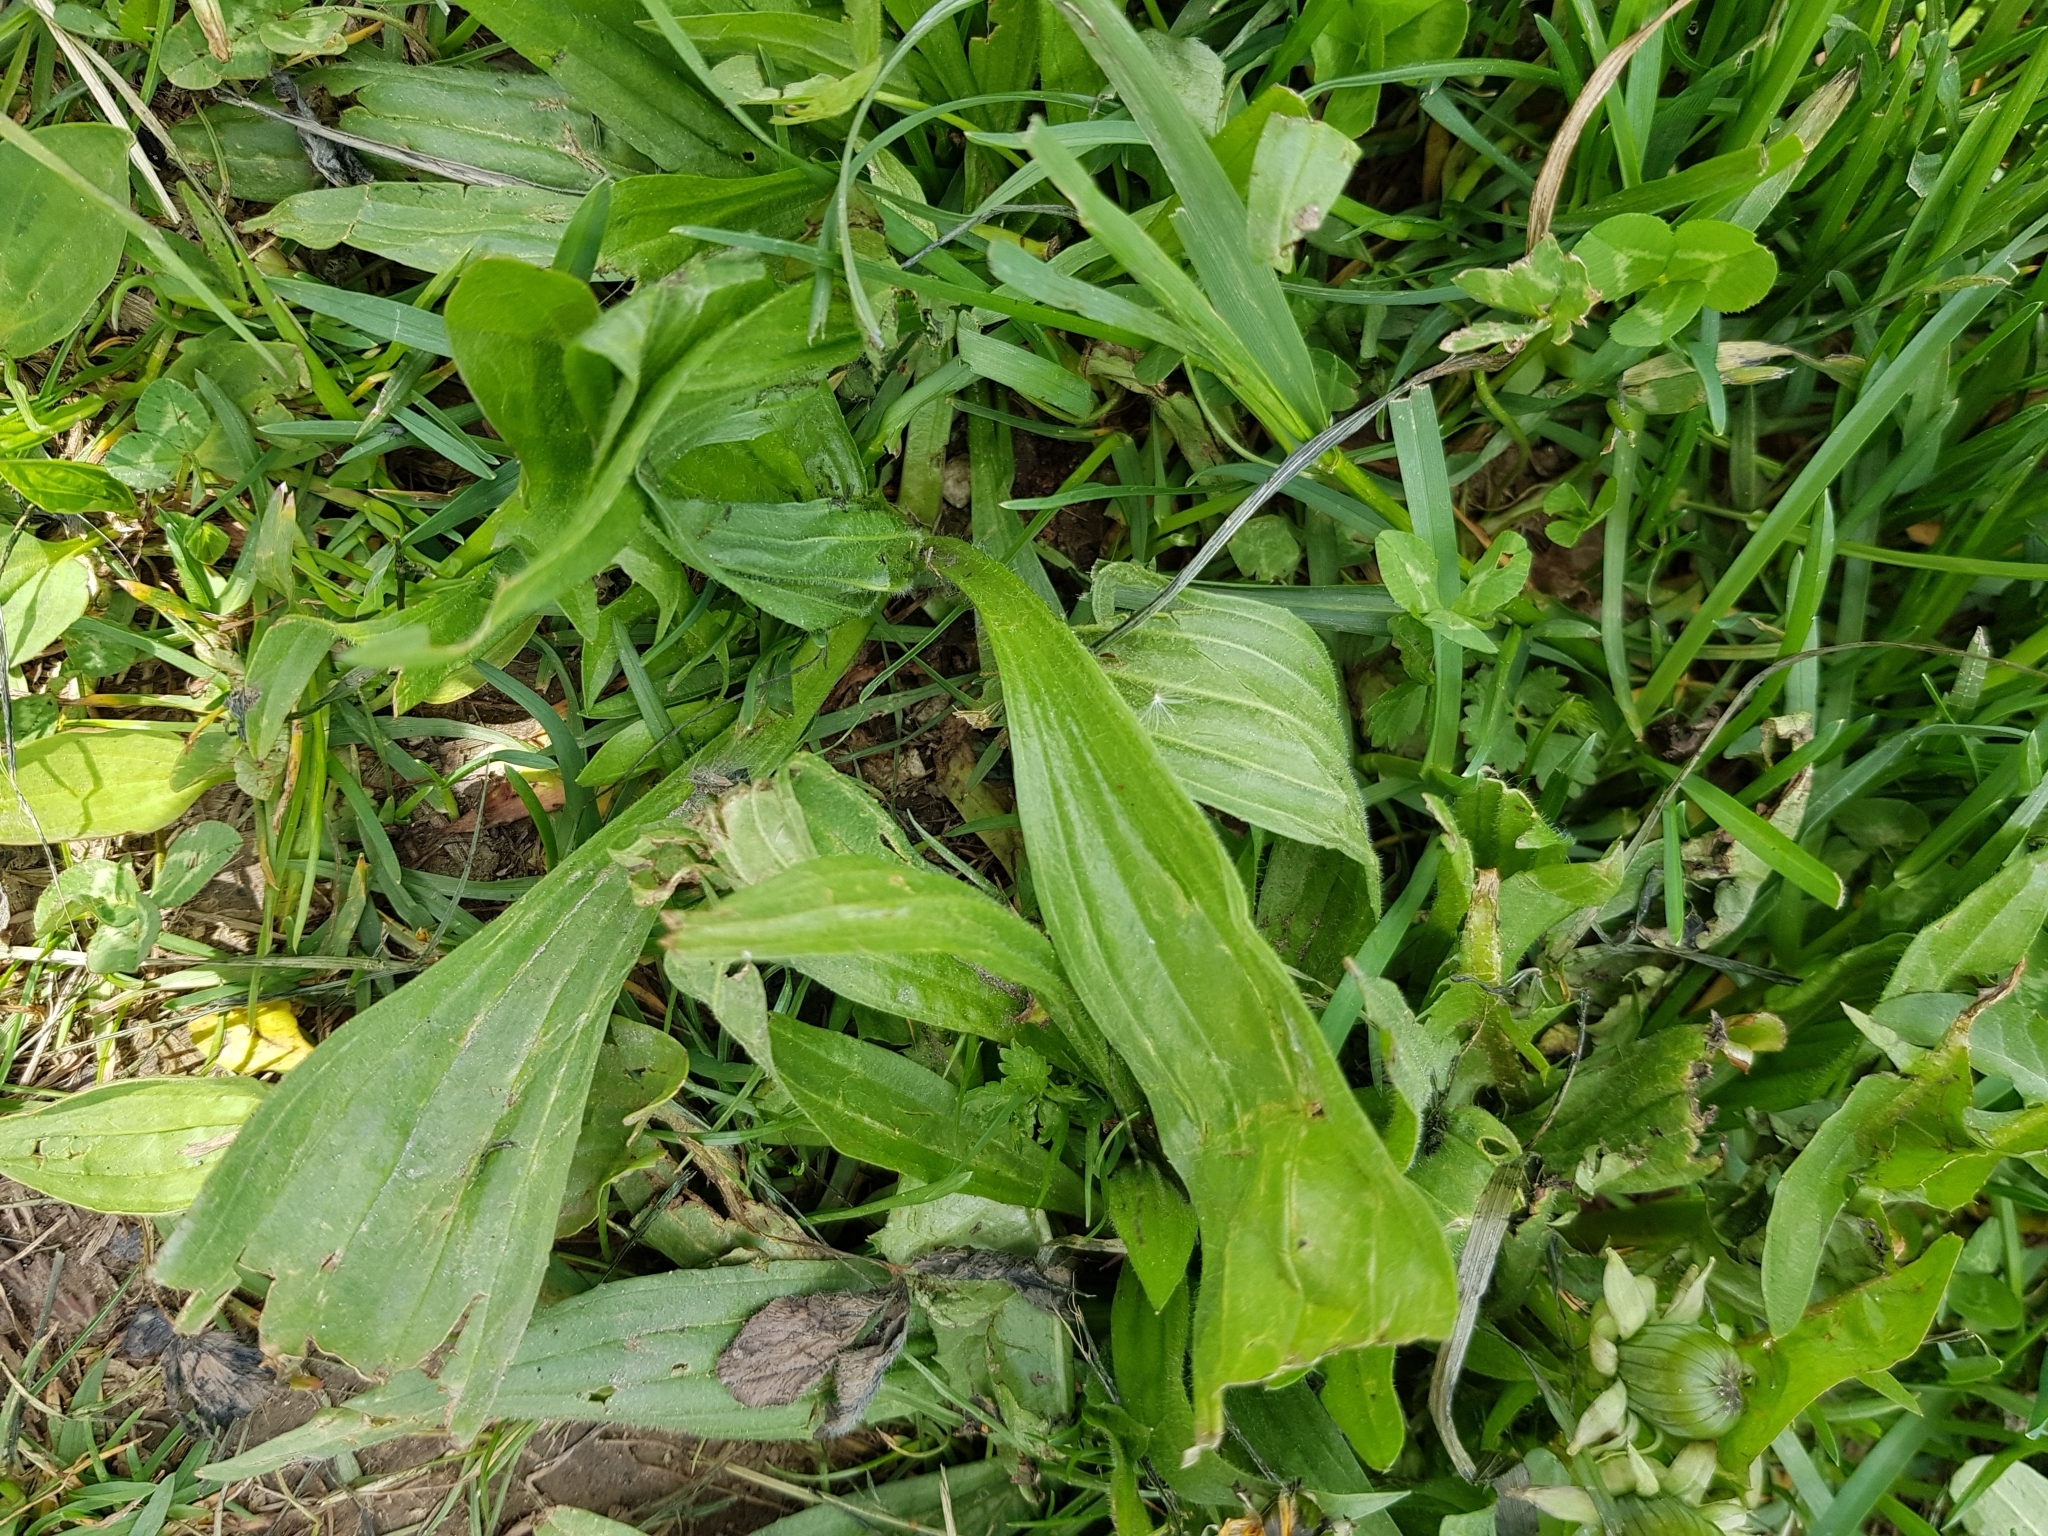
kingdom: Plantae
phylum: Tracheophyta
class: Magnoliopsida
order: Lamiales
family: Plantaginaceae
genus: Plantago
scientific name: Plantago lanceolata
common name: Ribwort plantain
